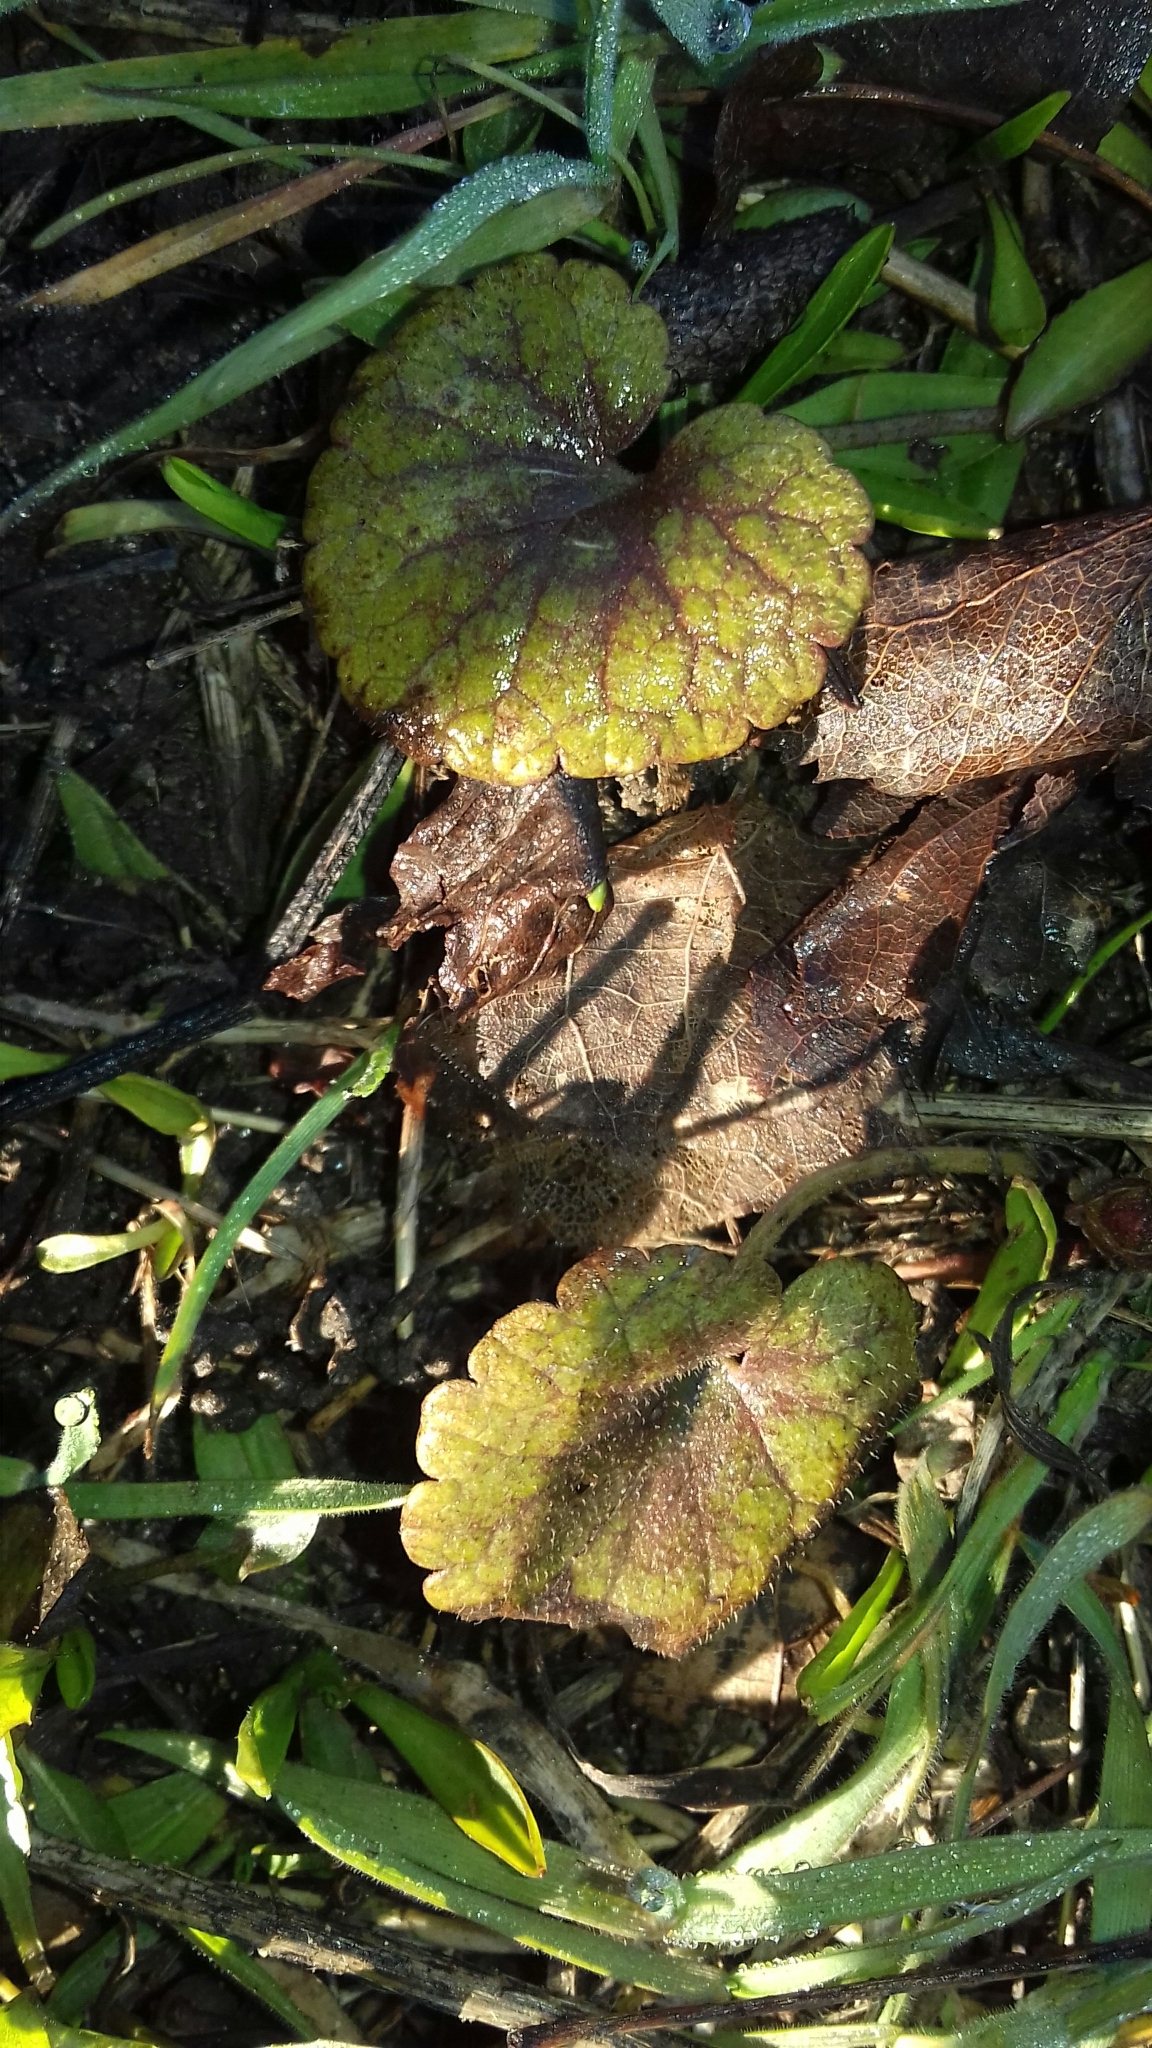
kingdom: Plantae
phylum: Tracheophyta
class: Magnoliopsida
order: Lamiales
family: Lamiaceae
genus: Glechoma
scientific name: Glechoma hederacea
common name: Ground ivy
